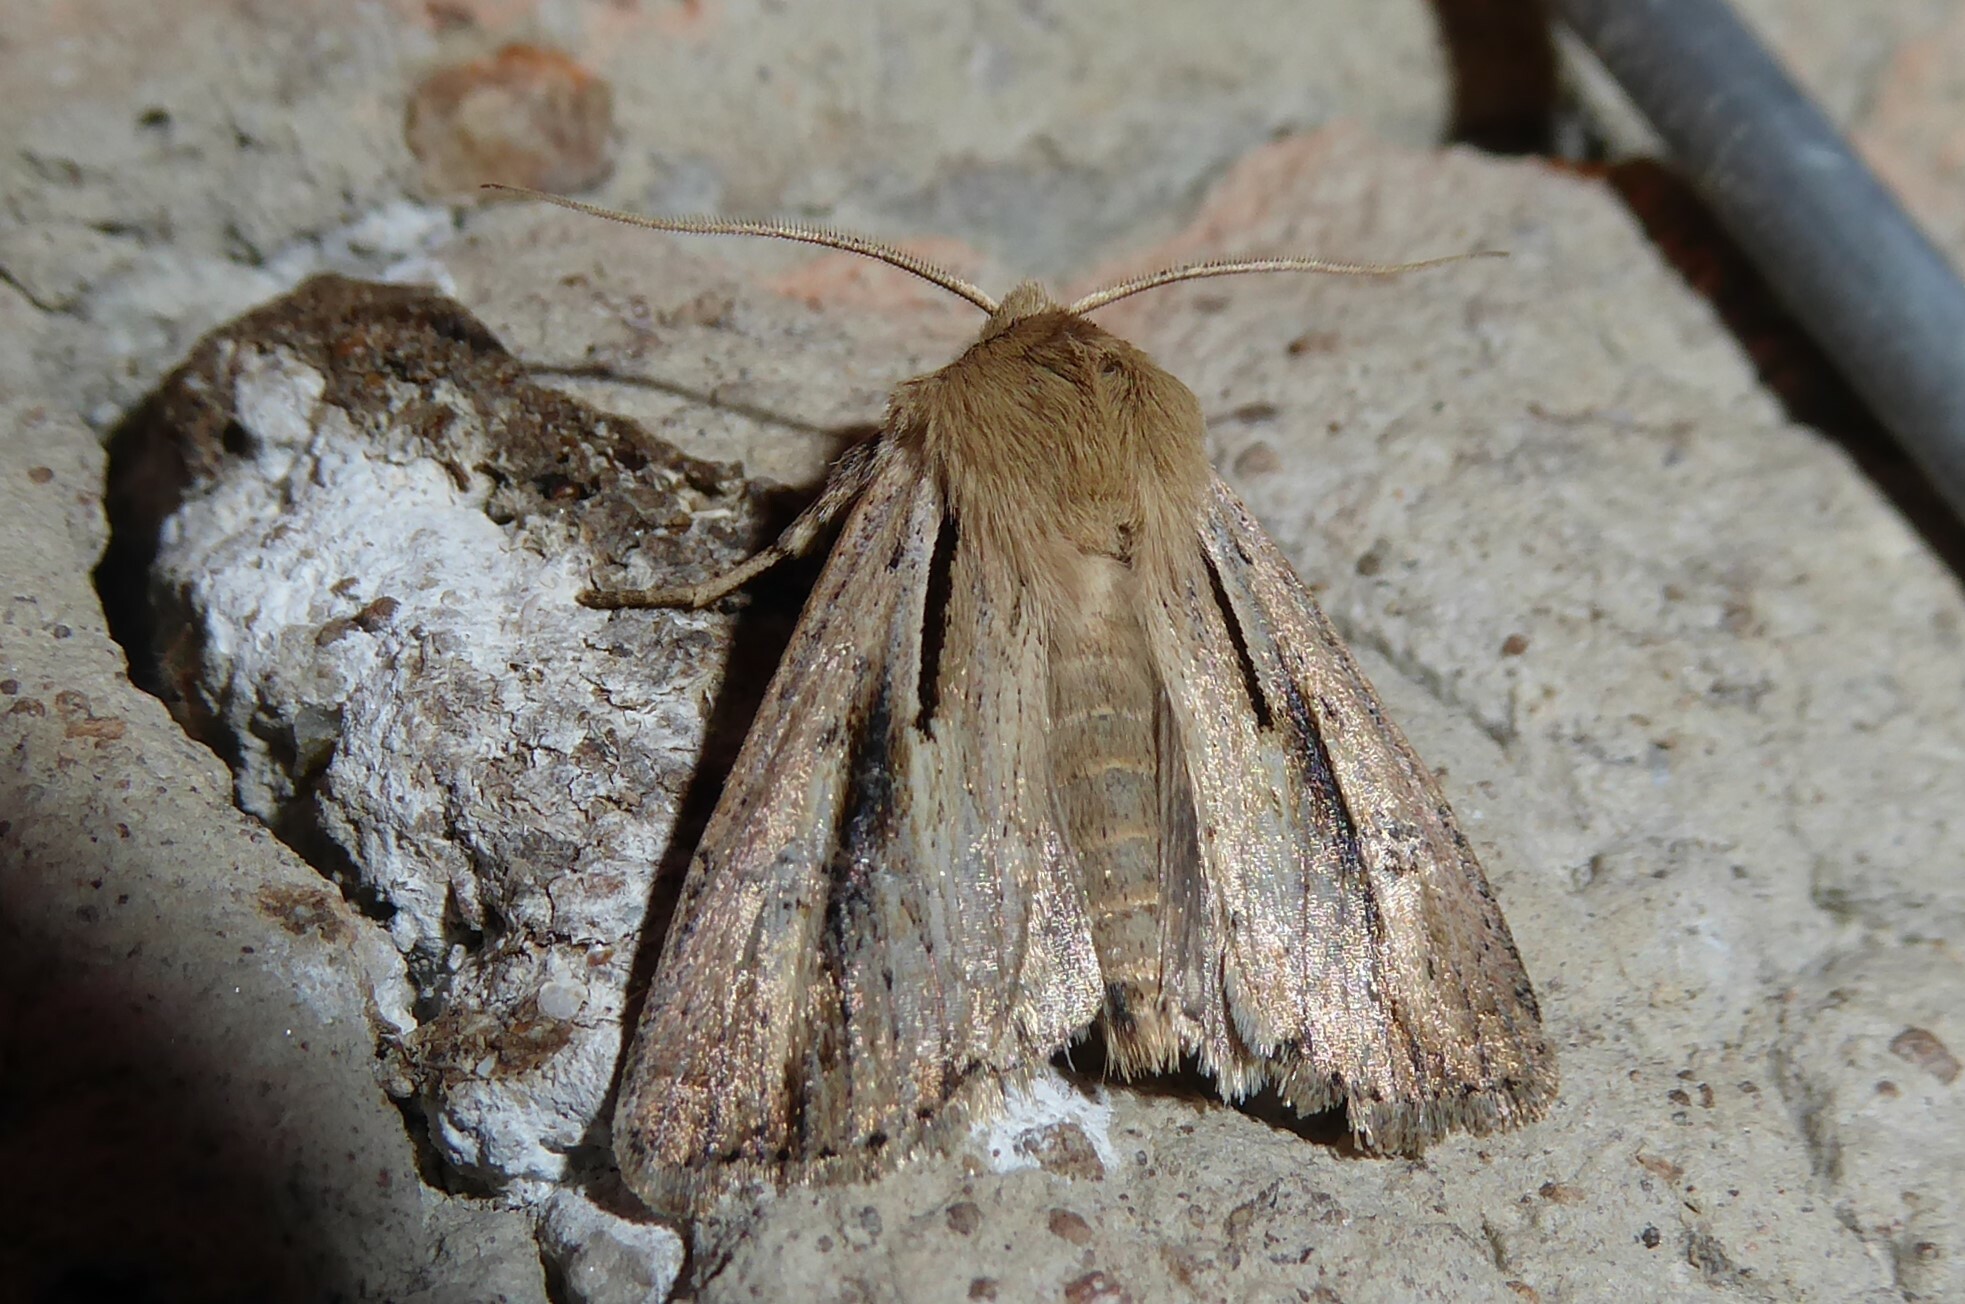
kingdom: Animalia
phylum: Arthropoda
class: Insecta
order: Lepidoptera
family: Noctuidae
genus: Ichneutica
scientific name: Ichneutica propria
